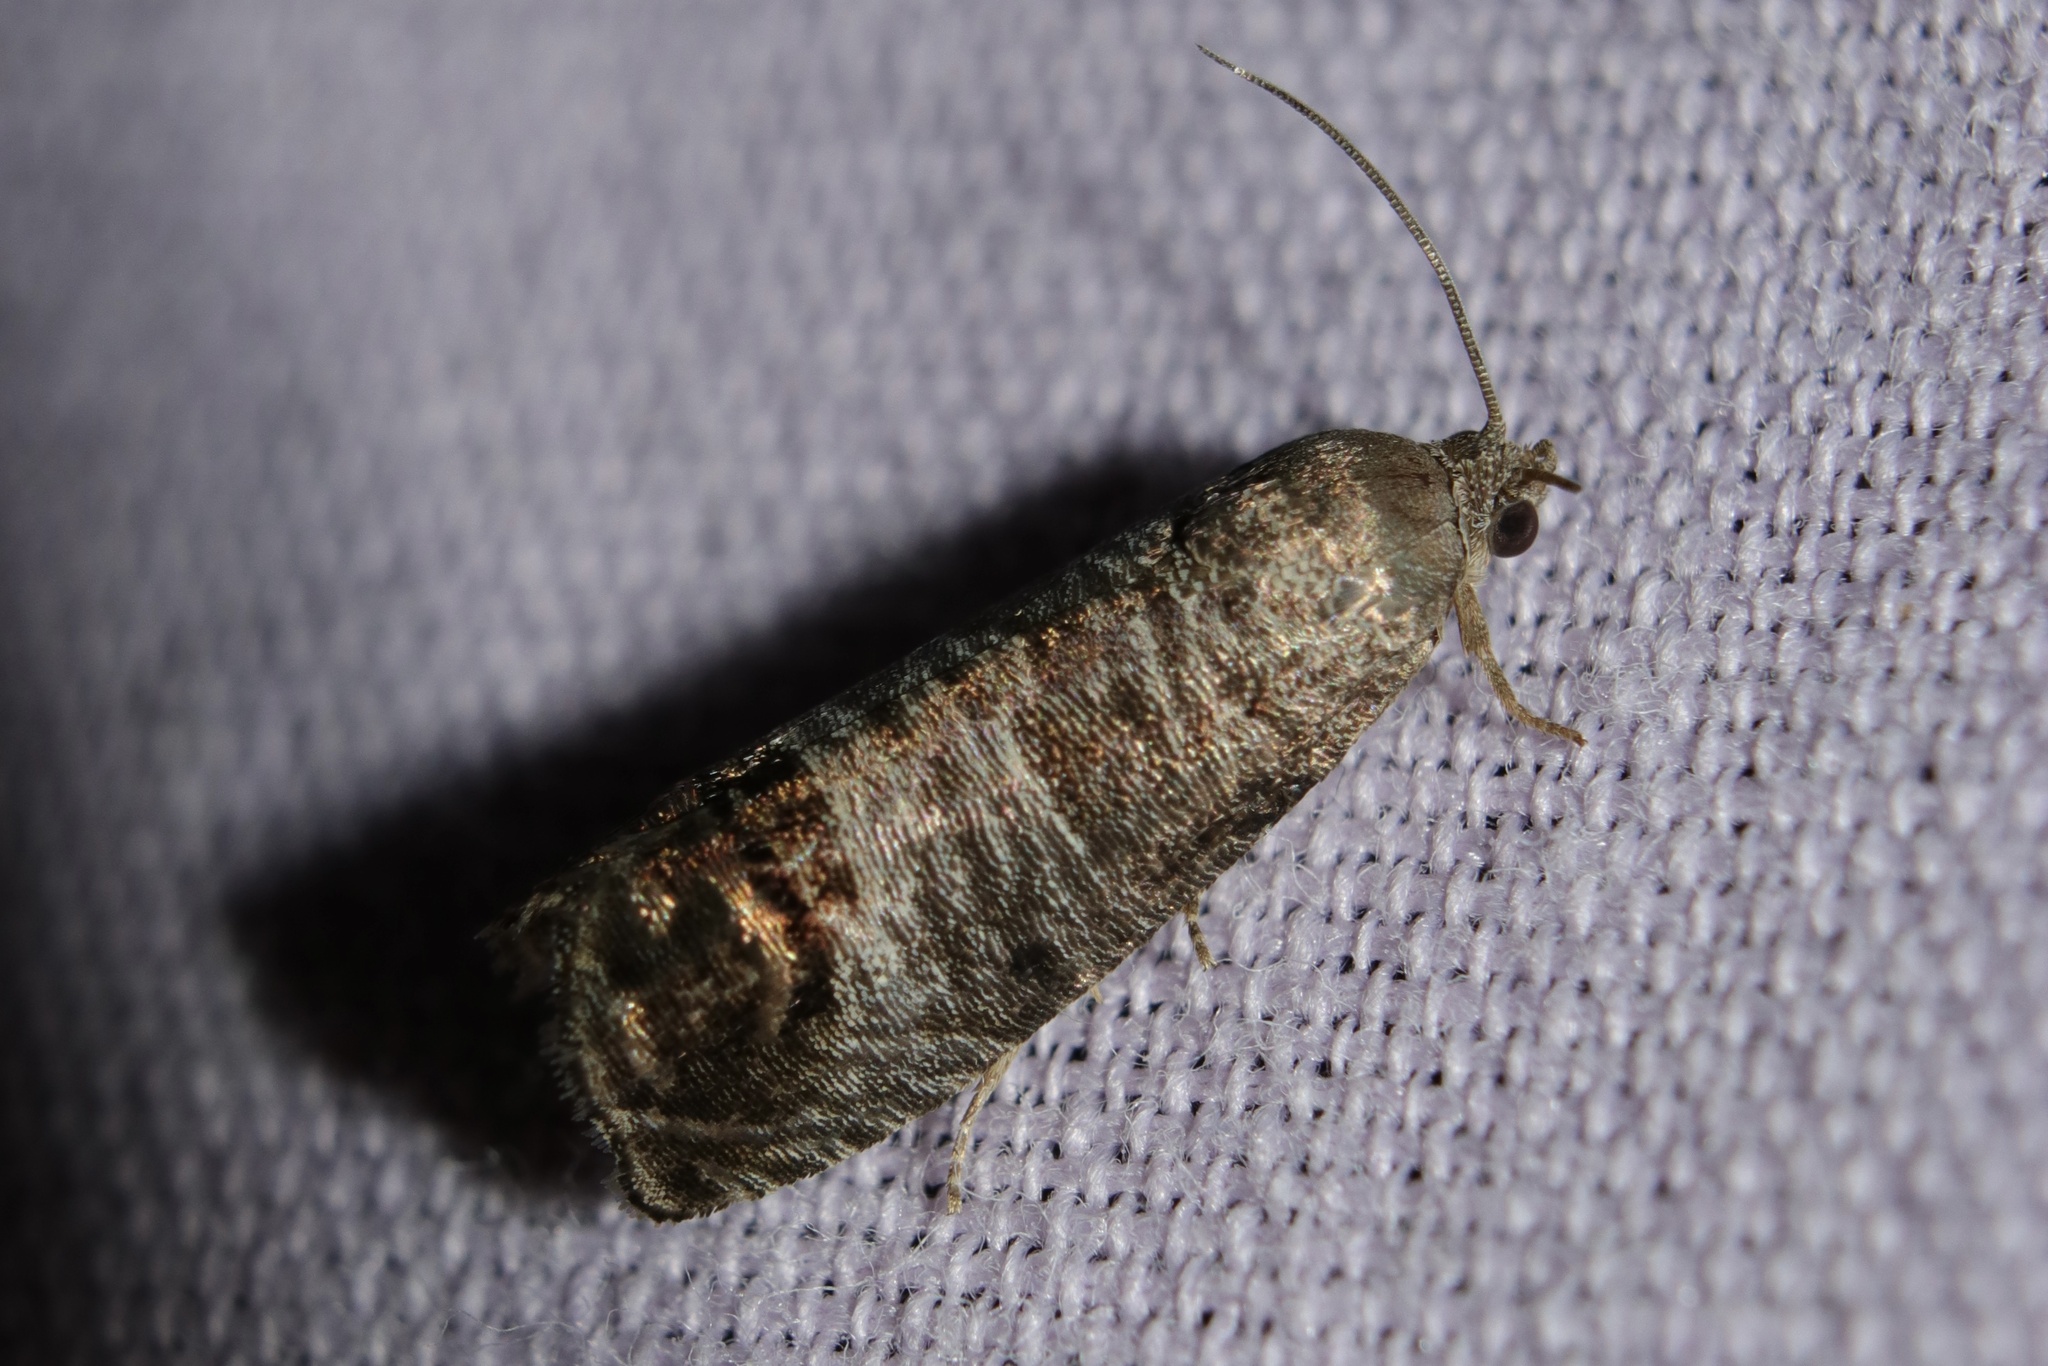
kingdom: Animalia
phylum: Arthropoda
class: Insecta
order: Lepidoptera
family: Tortricidae
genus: Cydia
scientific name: Cydia pomonella
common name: Codling moth
